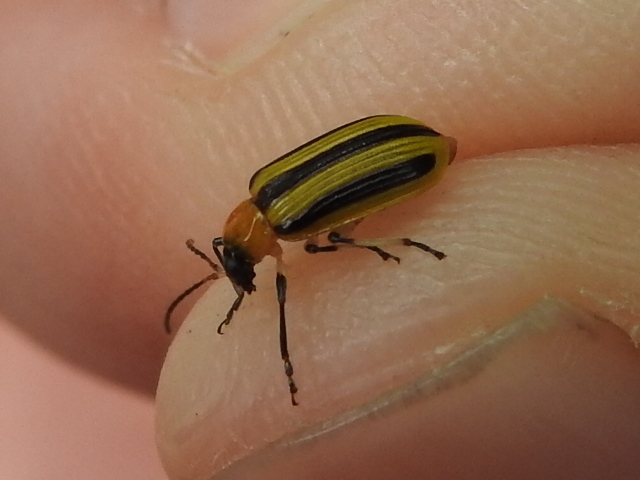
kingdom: Animalia
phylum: Arthropoda
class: Insecta
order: Coleoptera
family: Chrysomelidae
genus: Acalymma
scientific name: Acalymma vittatum
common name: Striped cucumber beetle
